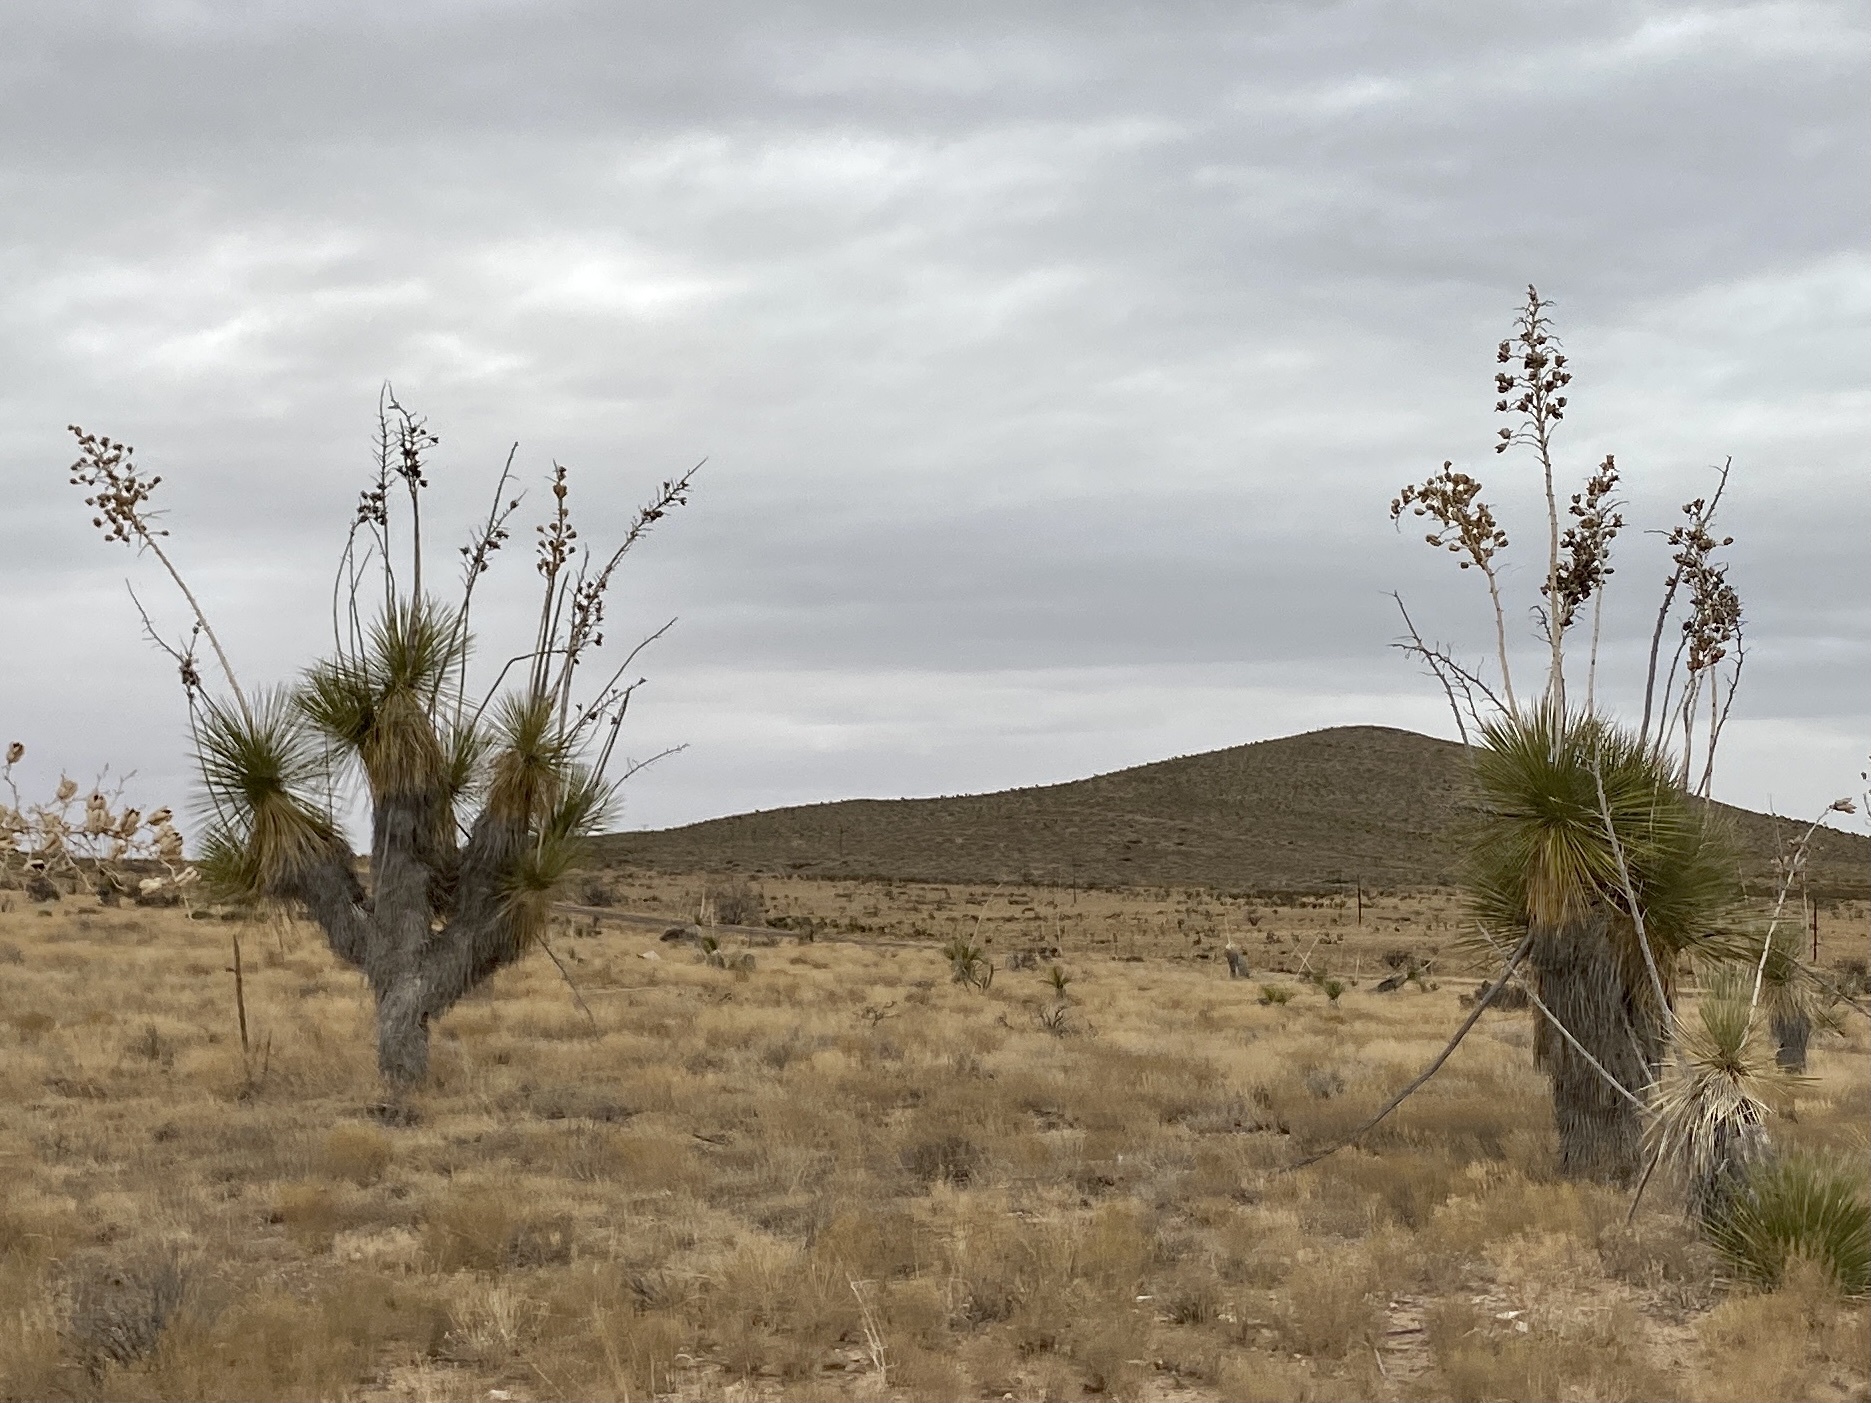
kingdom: Plantae
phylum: Tracheophyta
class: Liliopsida
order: Asparagales
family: Asparagaceae
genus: Yucca
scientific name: Yucca elata
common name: Palmella
